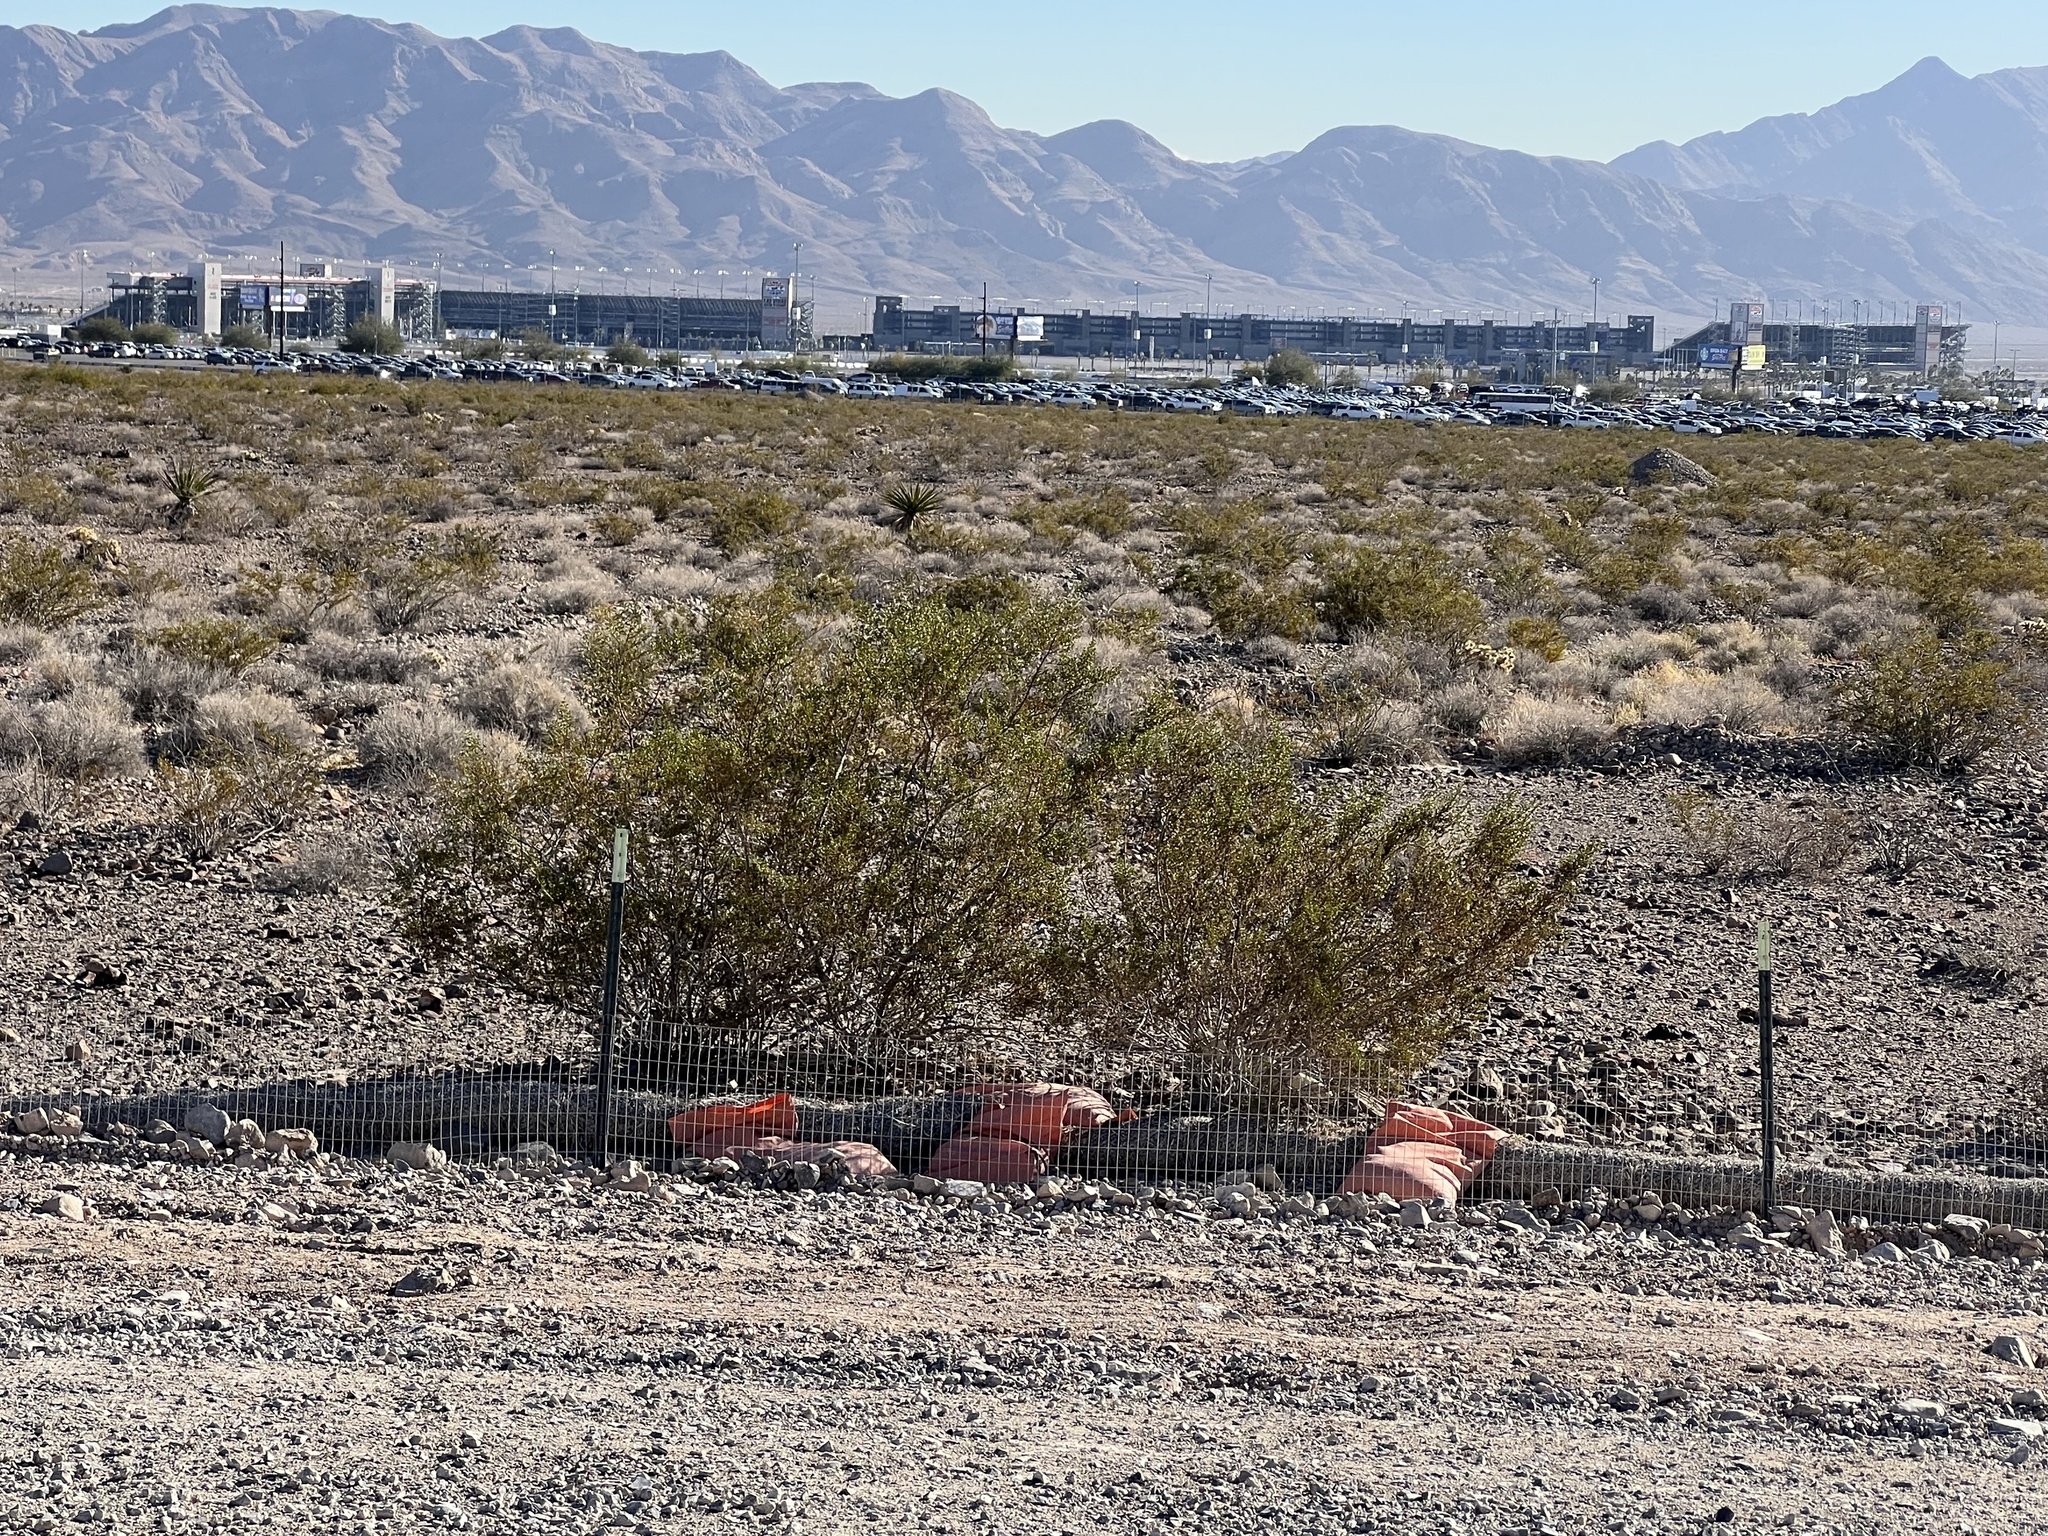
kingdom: Plantae
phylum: Tracheophyta
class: Magnoliopsida
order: Zygophyllales
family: Zygophyllaceae
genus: Larrea
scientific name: Larrea tridentata
